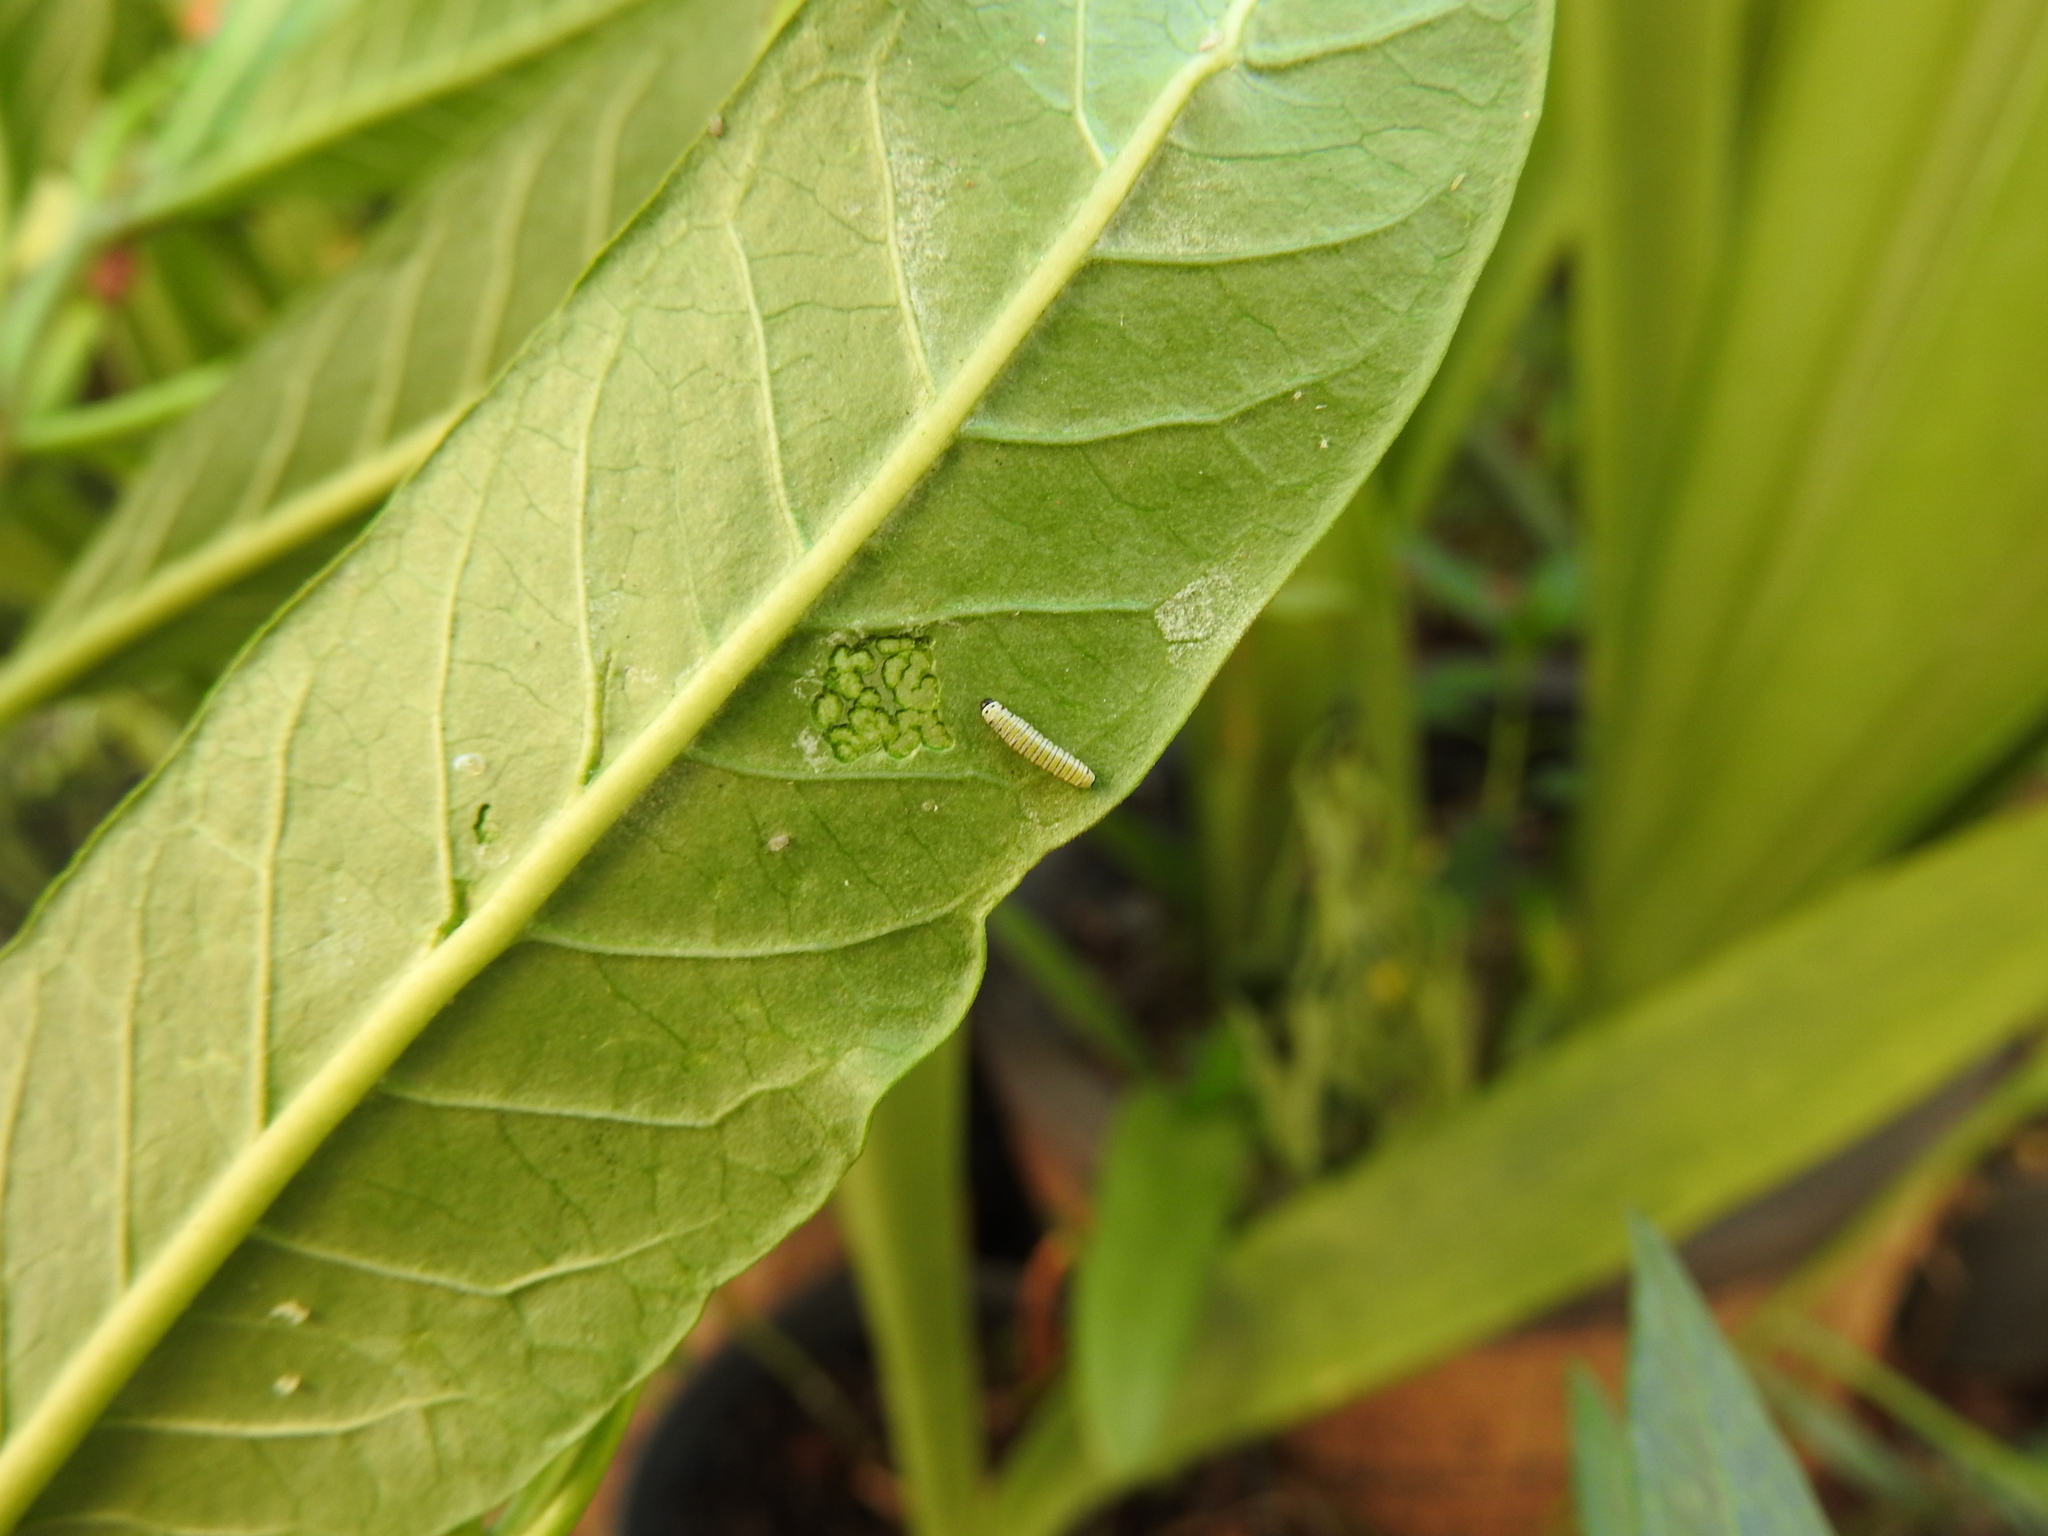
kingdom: Animalia
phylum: Arthropoda
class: Insecta
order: Lepidoptera
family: Nymphalidae
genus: Danaus
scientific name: Danaus plexippus
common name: Monarch
